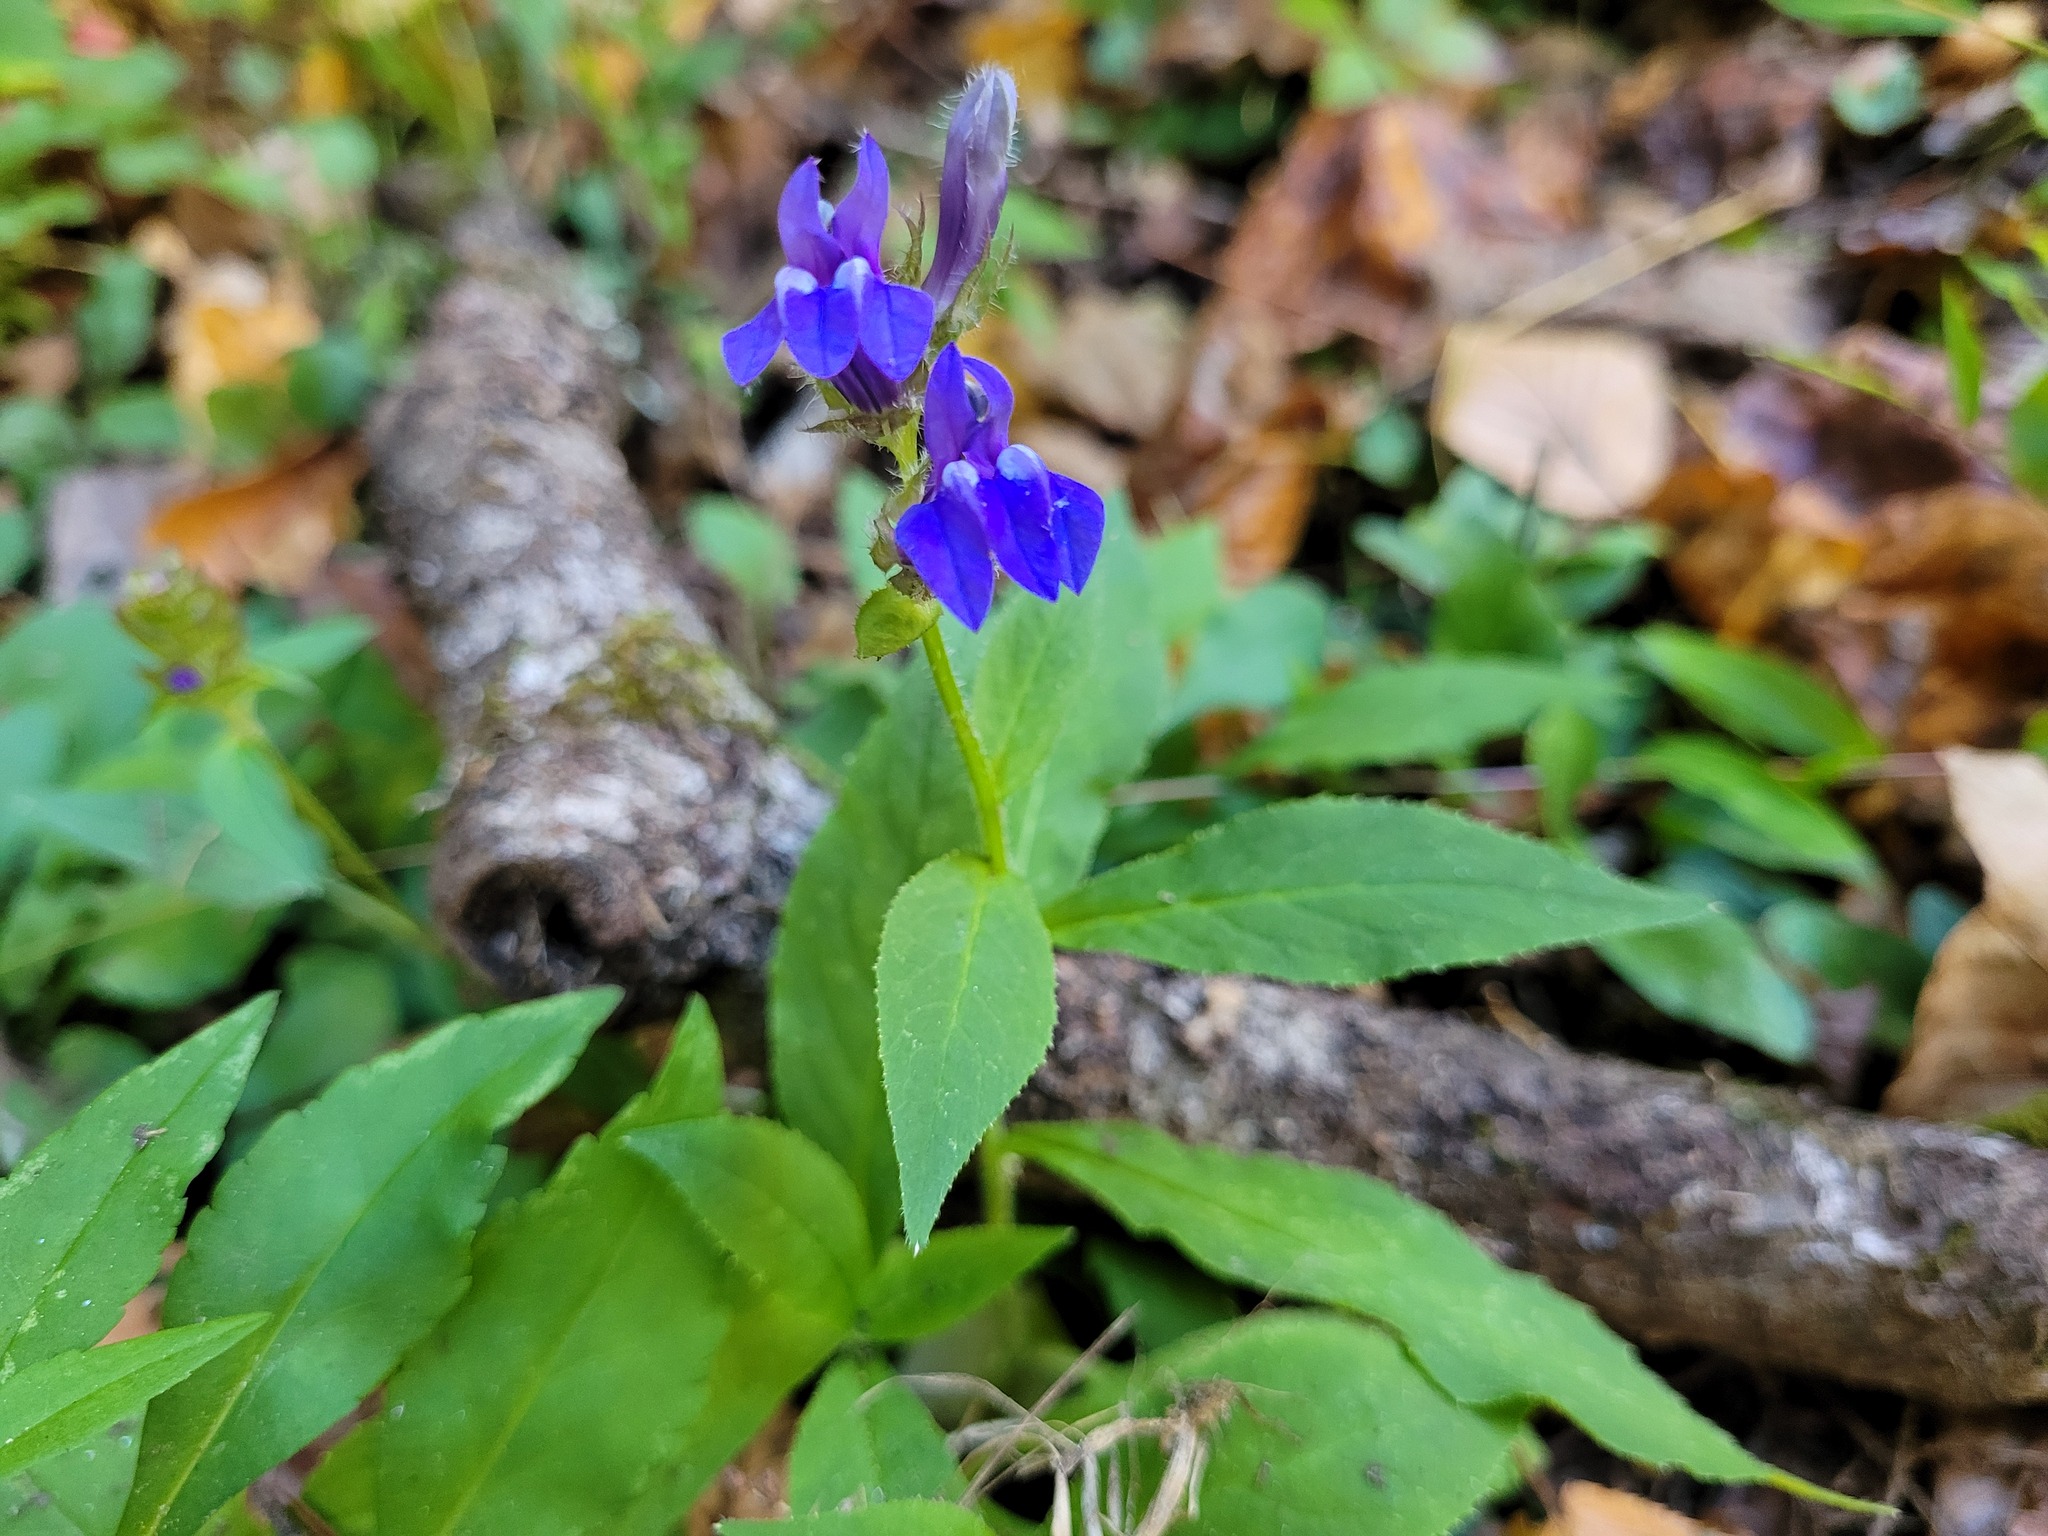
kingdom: Plantae
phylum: Tracheophyta
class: Magnoliopsida
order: Asterales
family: Campanulaceae
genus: Lobelia
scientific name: Lobelia siphilitica
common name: Great lobelia
